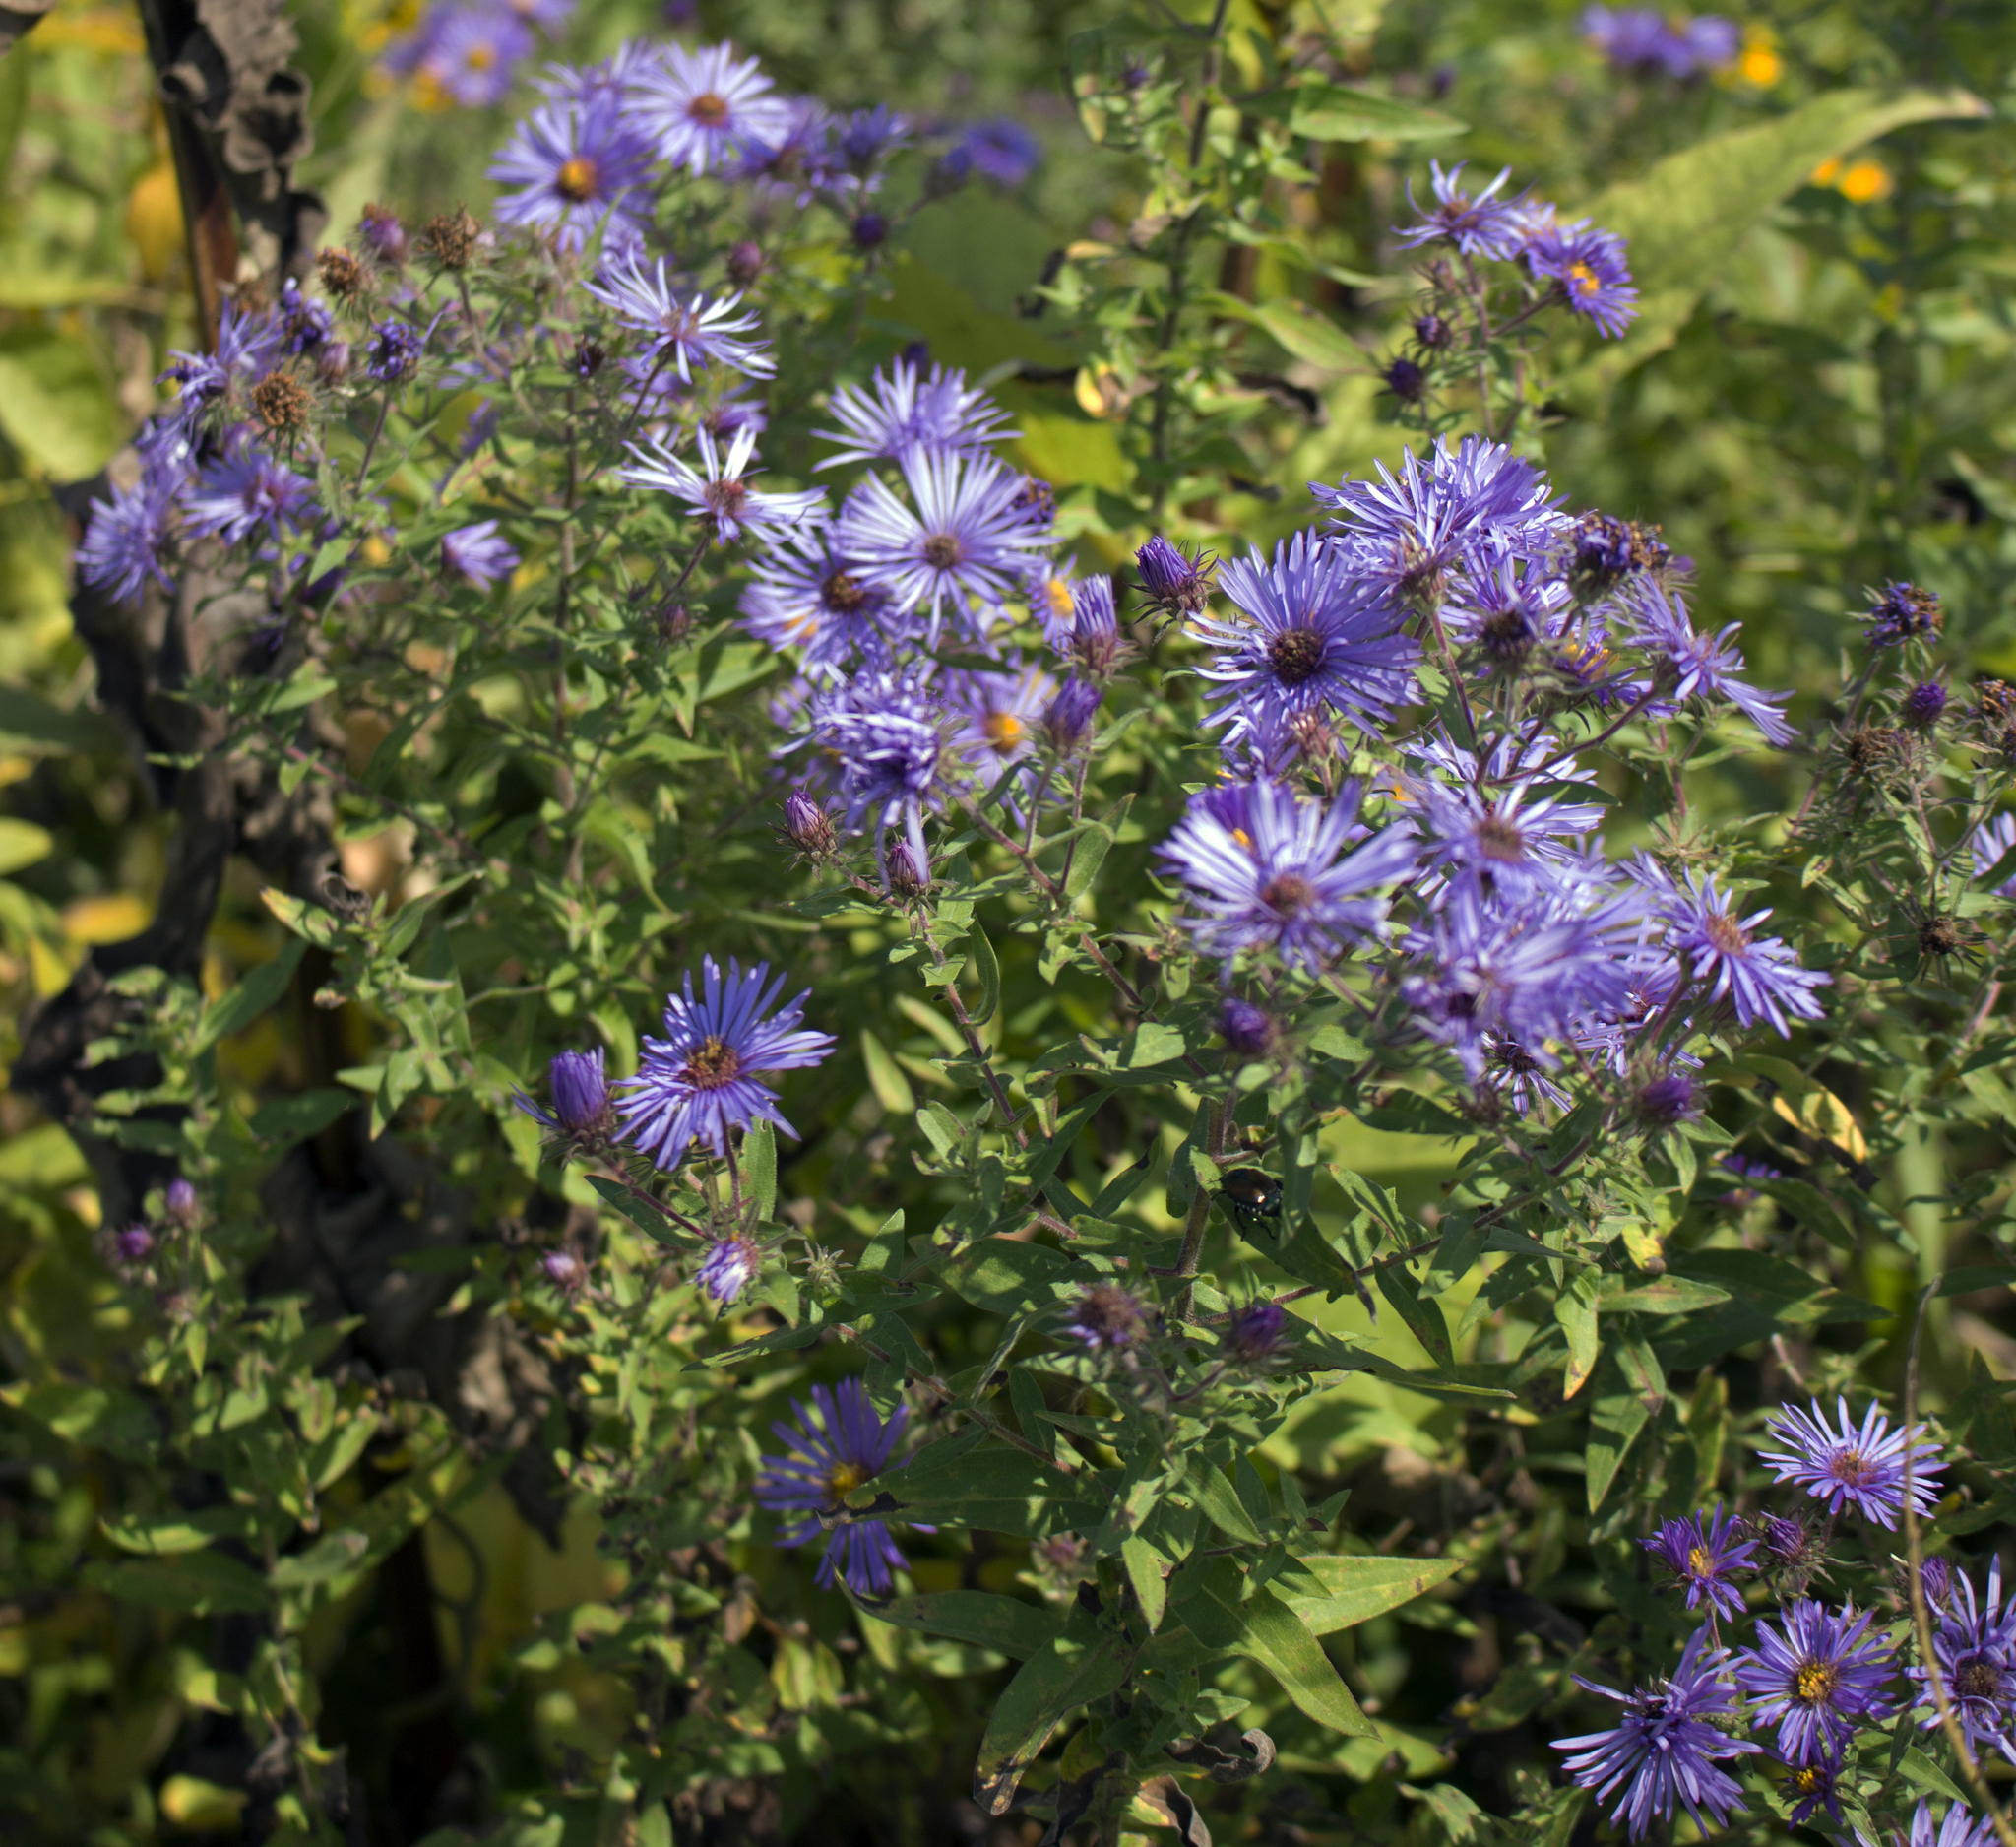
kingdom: Plantae
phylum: Tracheophyta
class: Magnoliopsida
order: Asterales
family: Asteraceae
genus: Symphyotrichum
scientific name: Symphyotrichum novae-angliae
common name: Michaelmas daisy
